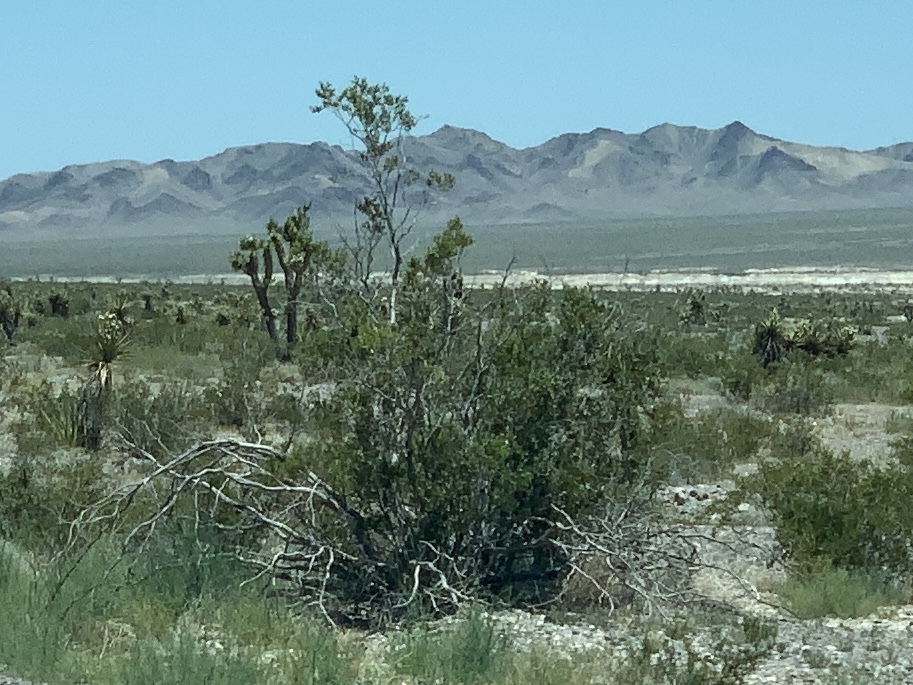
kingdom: Plantae
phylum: Tracheophyta
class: Magnoliopsida
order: Zygophyllales
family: Zygophyllaceae
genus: Larrea
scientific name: Larrea tridentata
